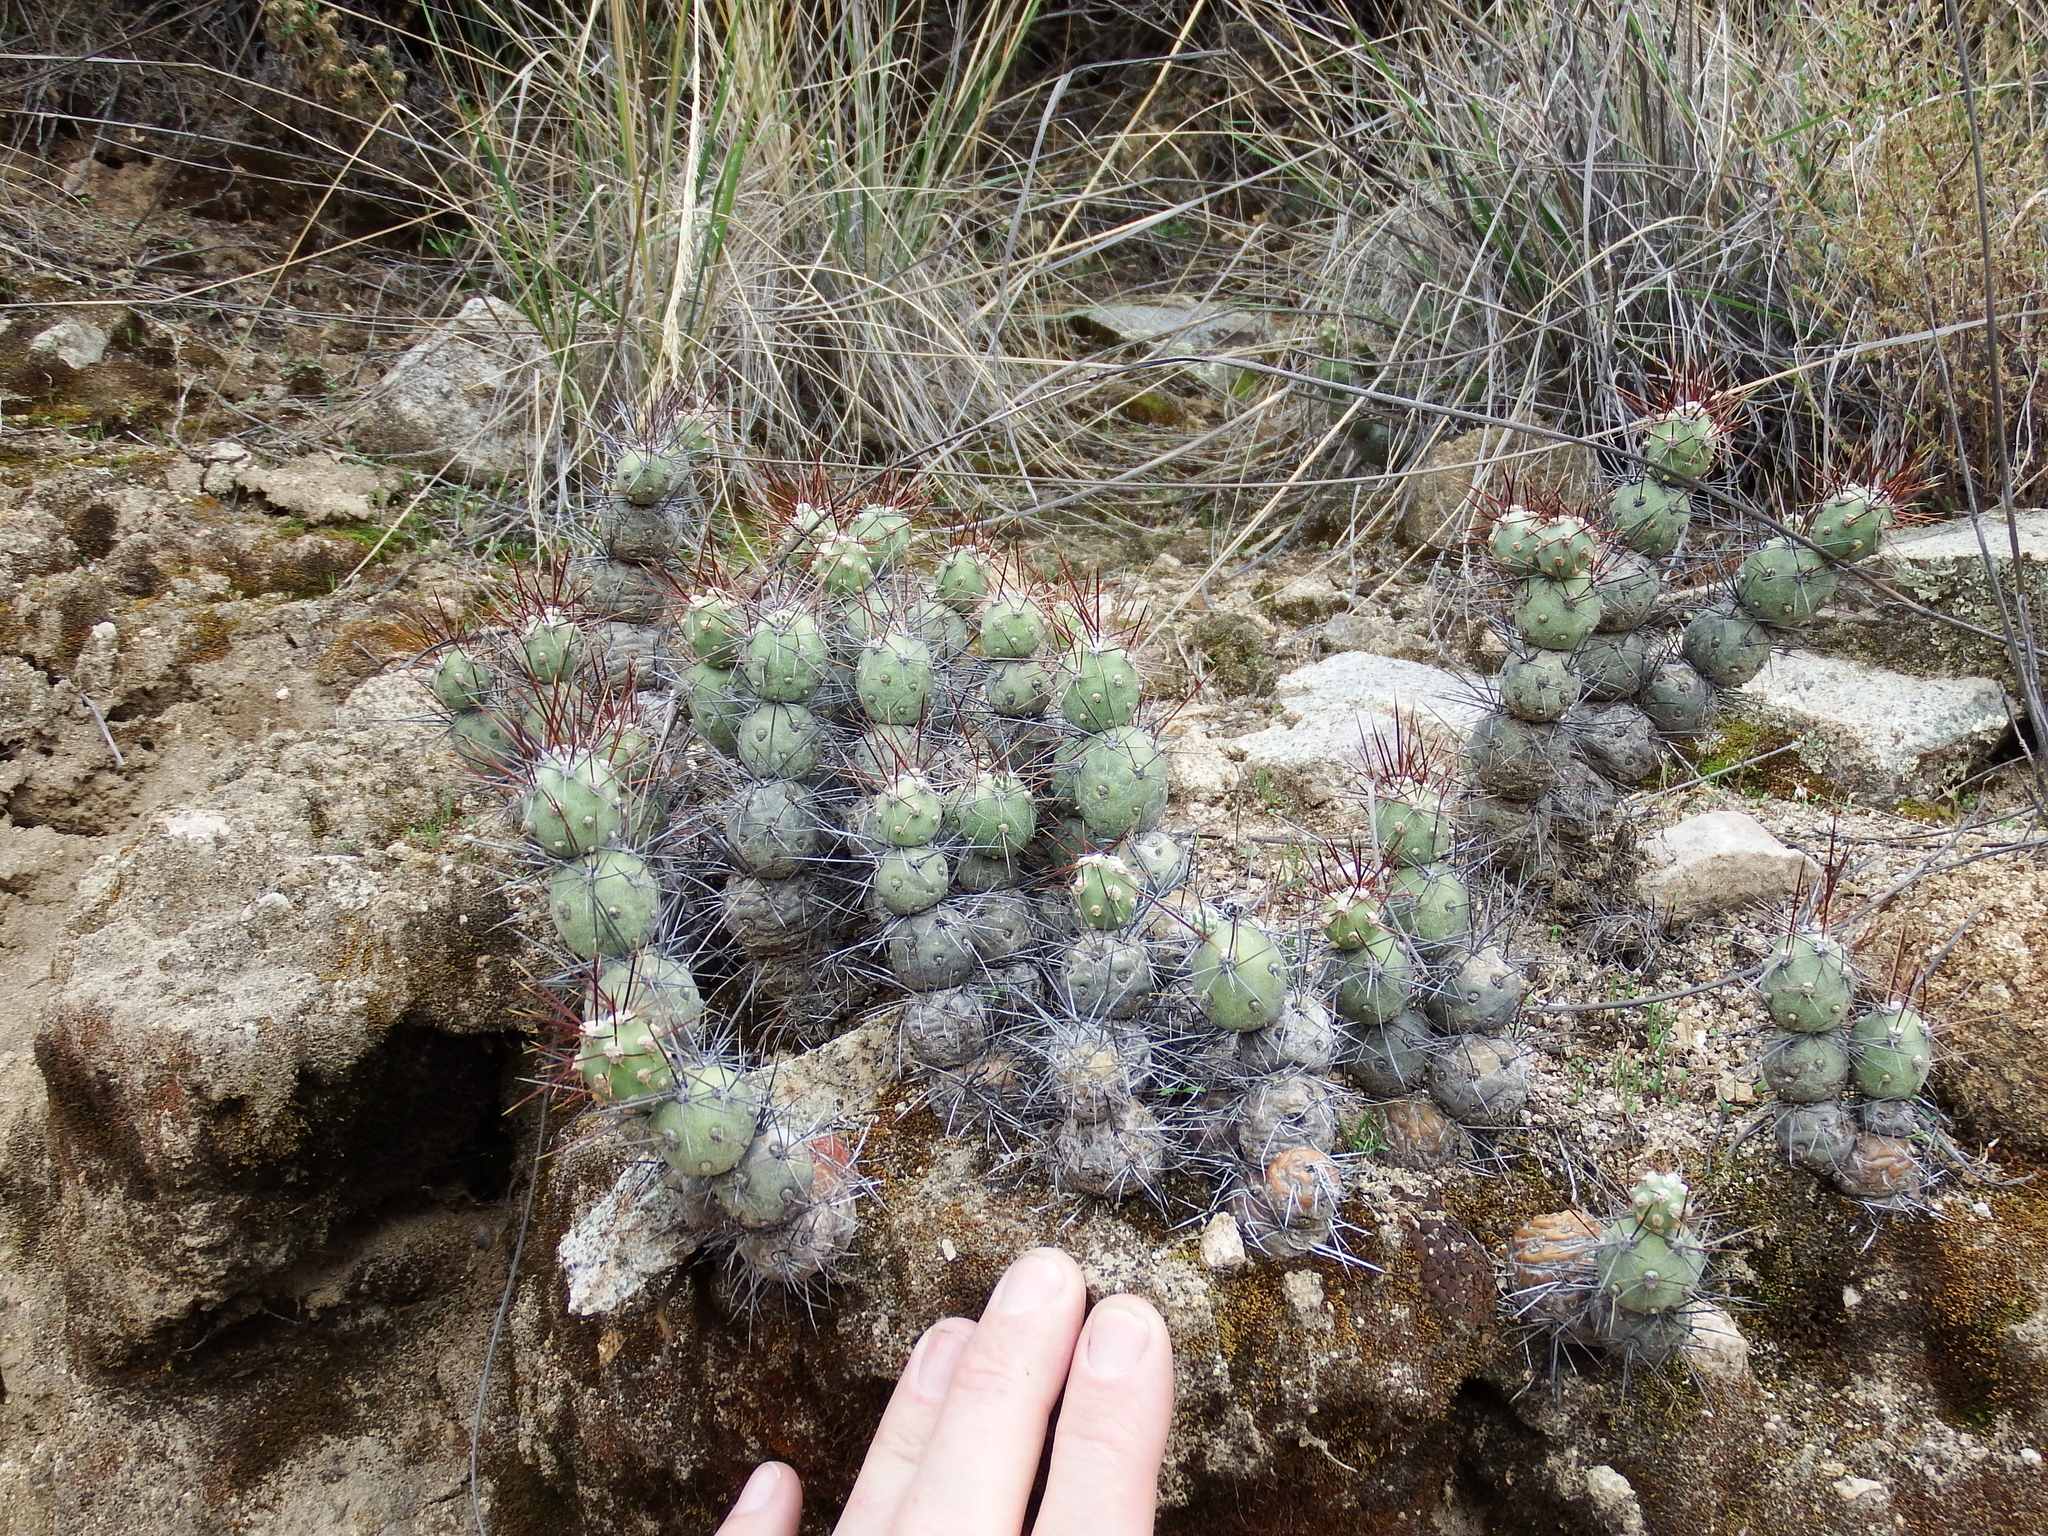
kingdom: Plantae
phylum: Tracheophyta
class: Magnoliopsida
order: Caryophyllales
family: Cactaceae
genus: Cumulopuntia
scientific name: Cumulopuntia leucophaea
